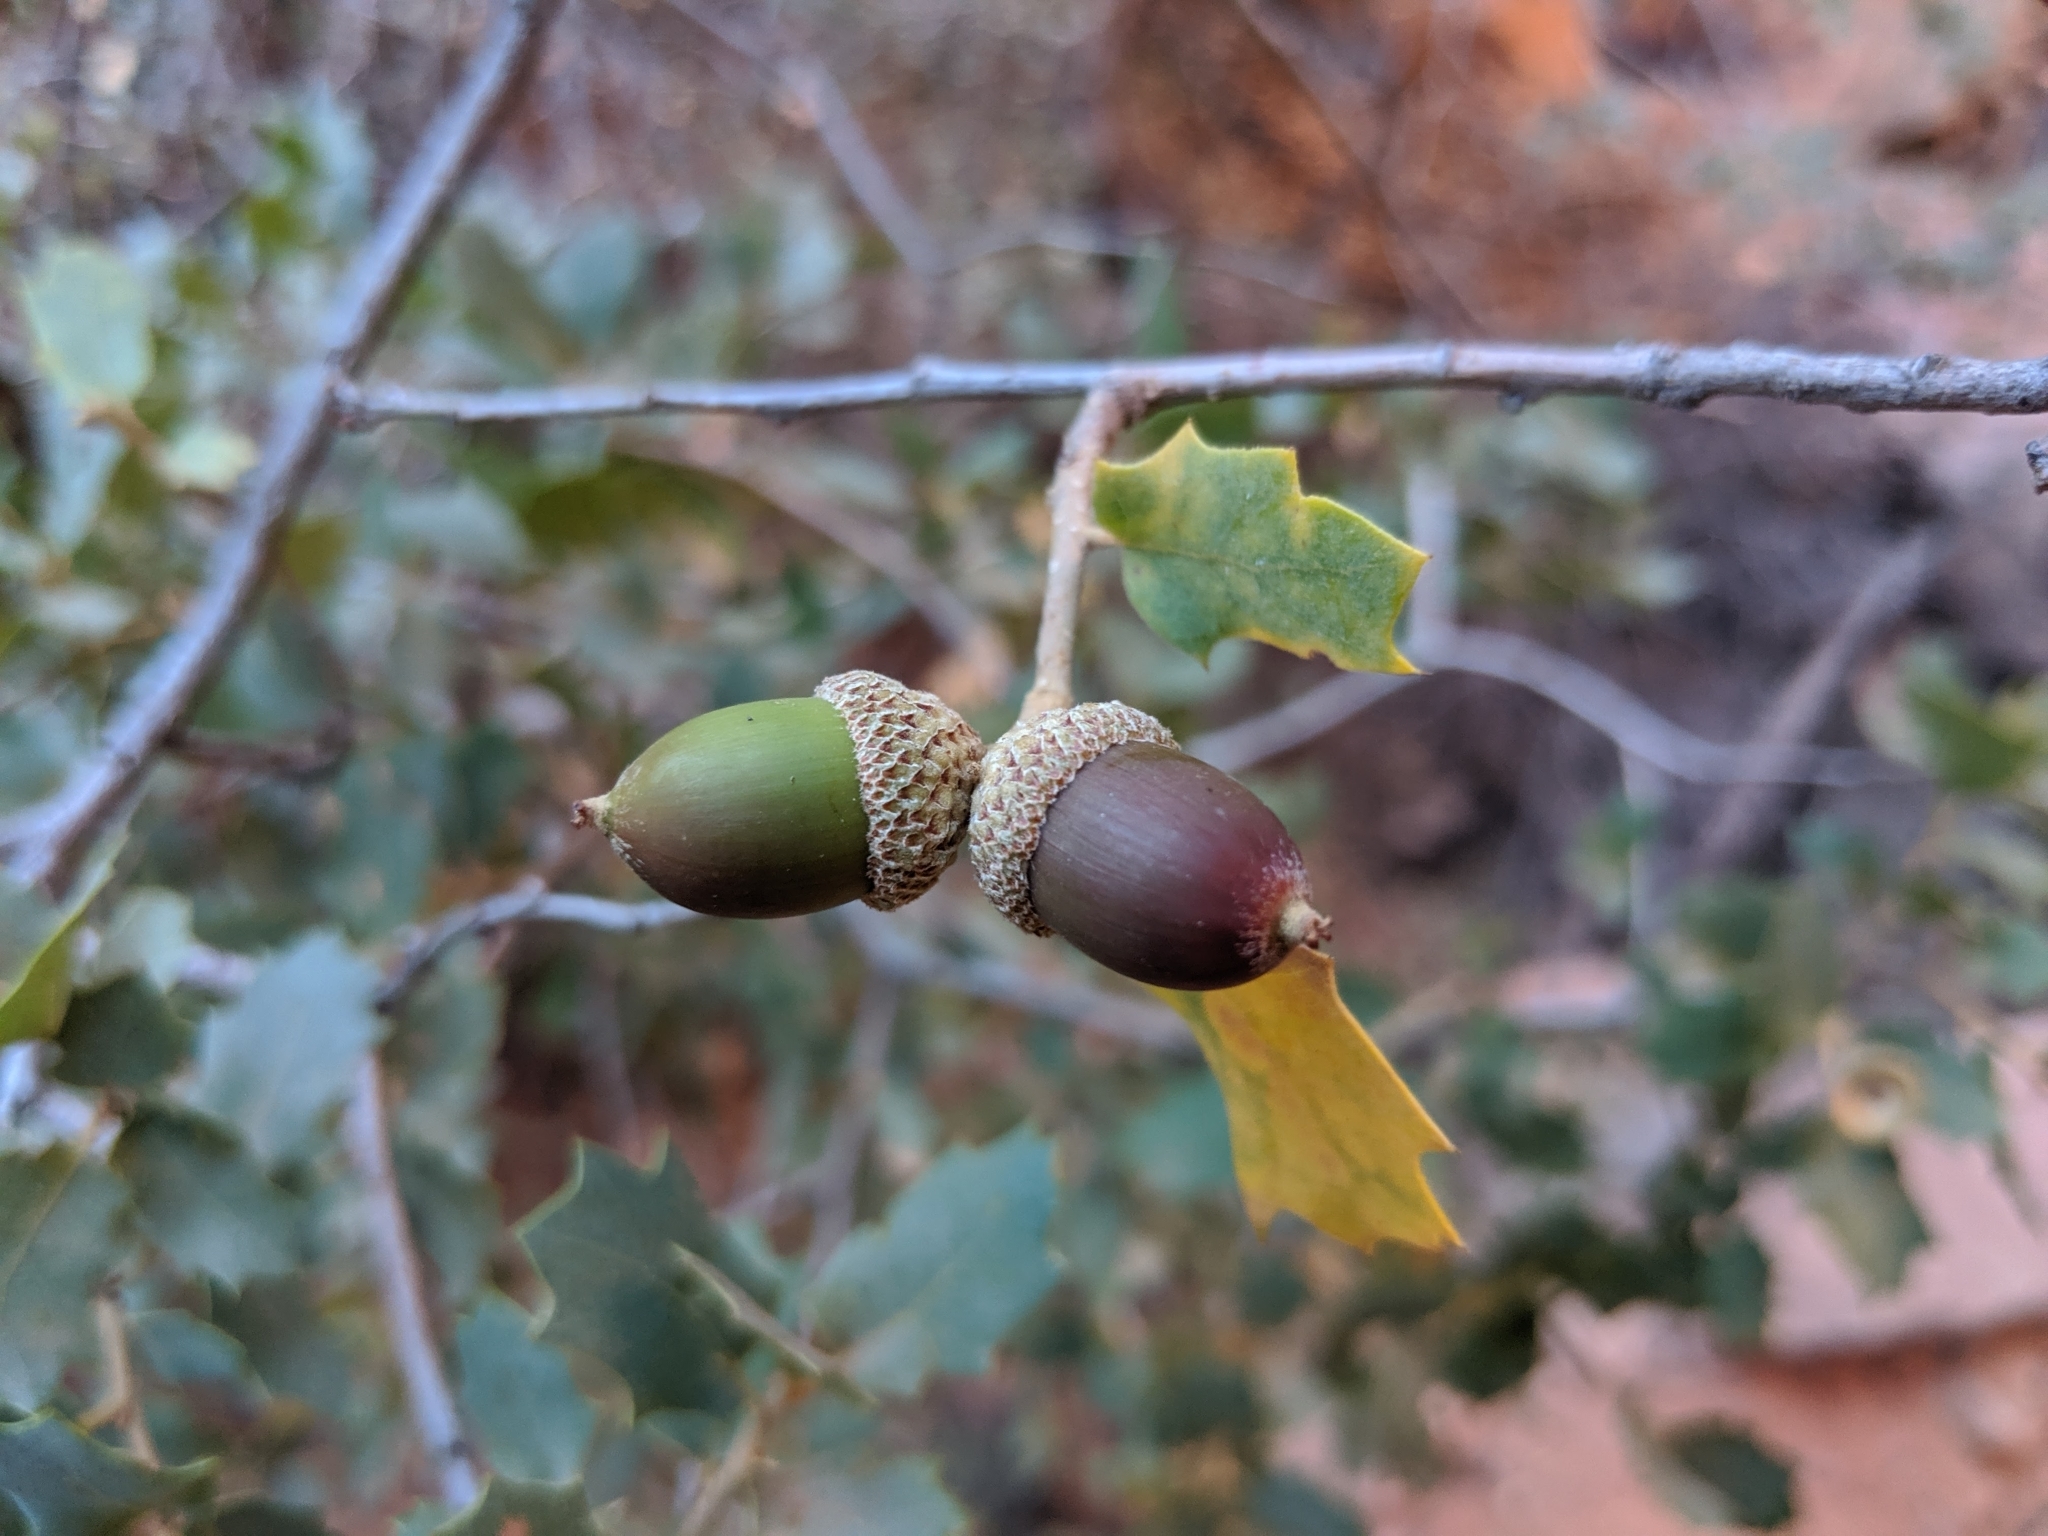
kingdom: Plantae
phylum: Tracheophyta
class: Magnoliopsida
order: Fagales
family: Fagaceae
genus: Quercus
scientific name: Quercus turbinella
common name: Sonoran scrub oak
